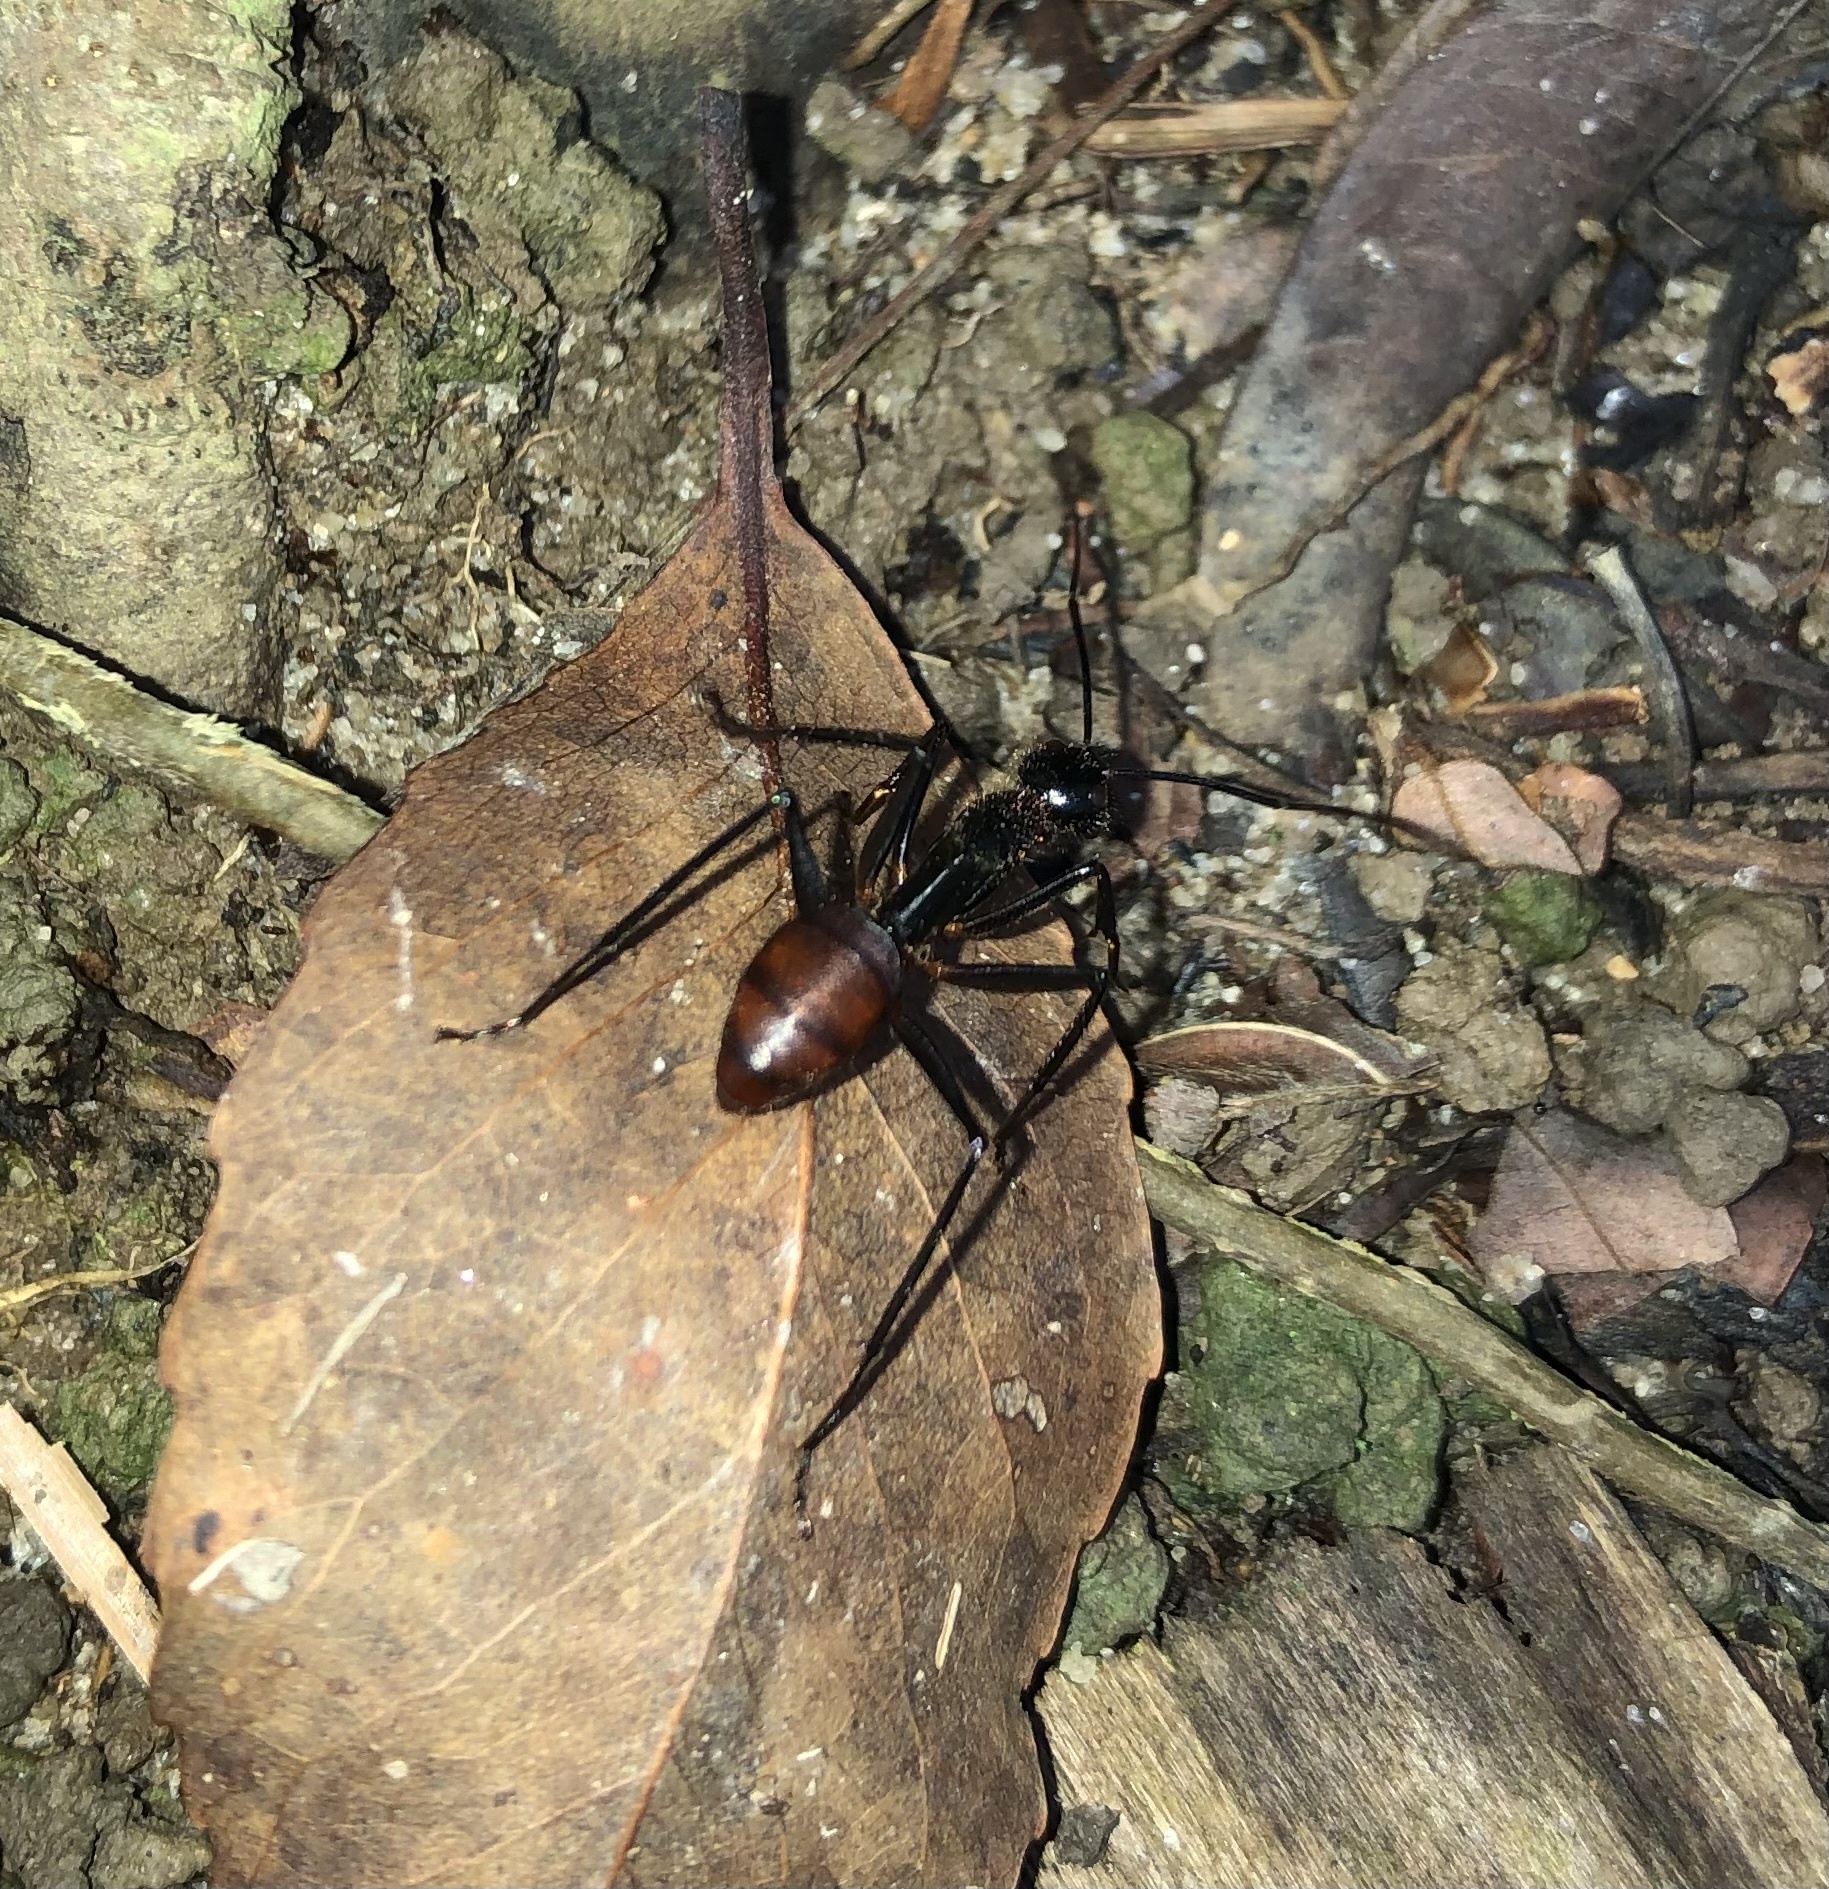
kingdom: Animalia
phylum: Arthropoda
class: Insecta
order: Hymenoptera
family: Formicidae
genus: Dinomyrmex
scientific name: Dinomyrmex
